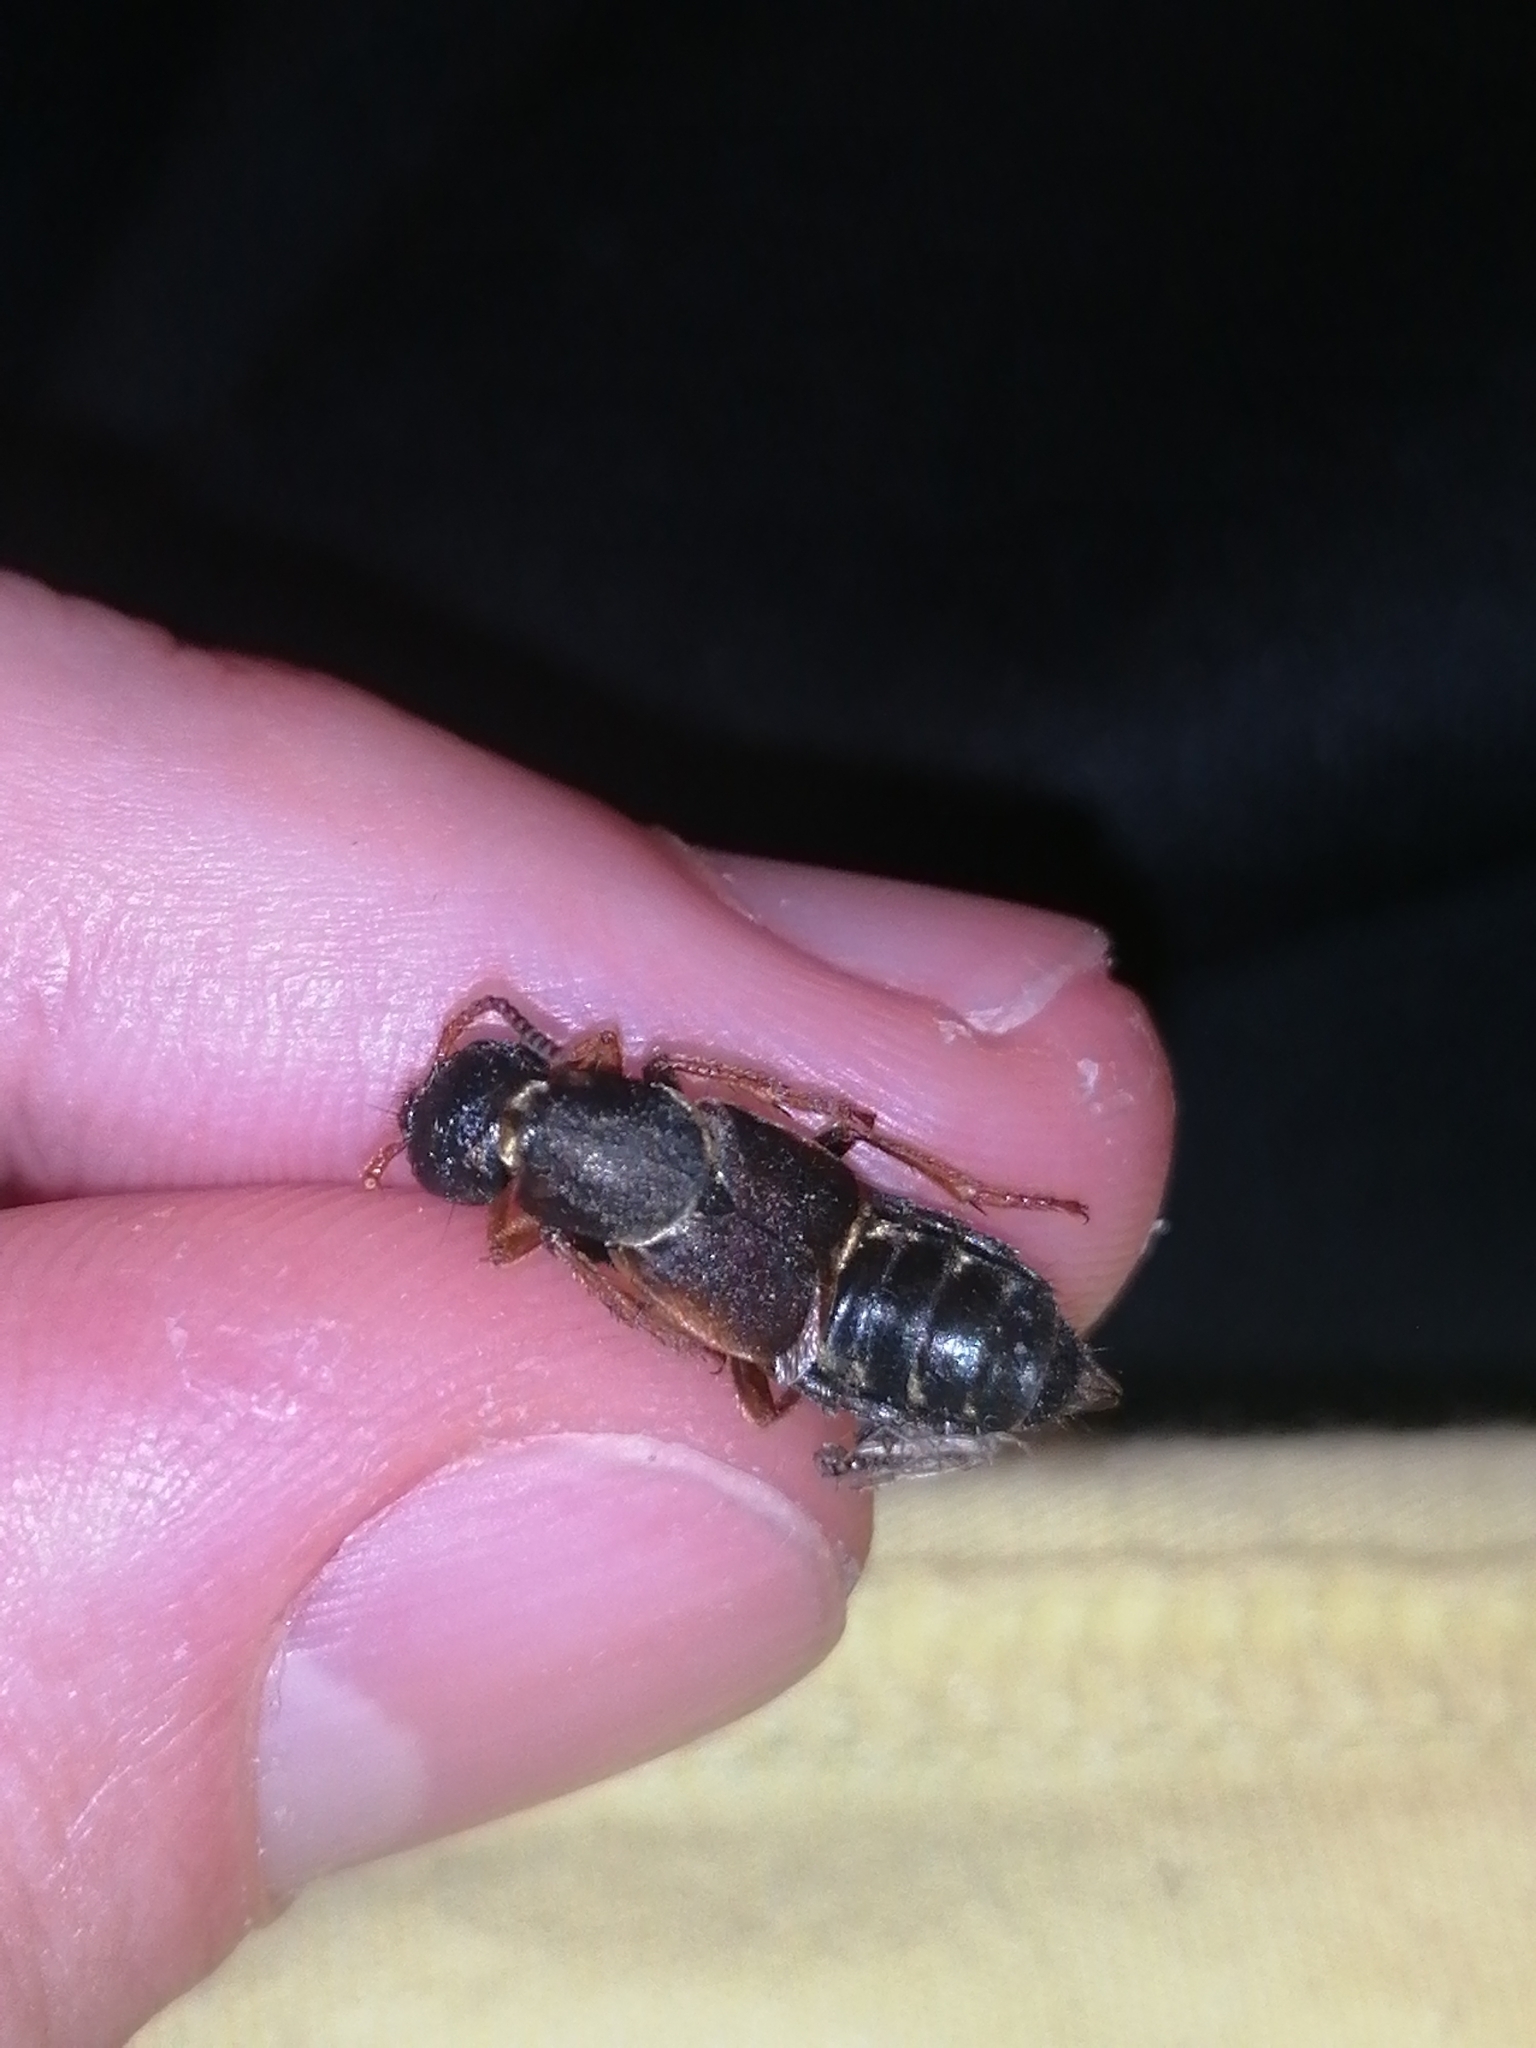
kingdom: Animalia
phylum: Arthropoda
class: Insecta
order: Coleoptera
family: Staphylinidae
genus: Staphylinus
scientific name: Staphylinus dimidiaticornis
